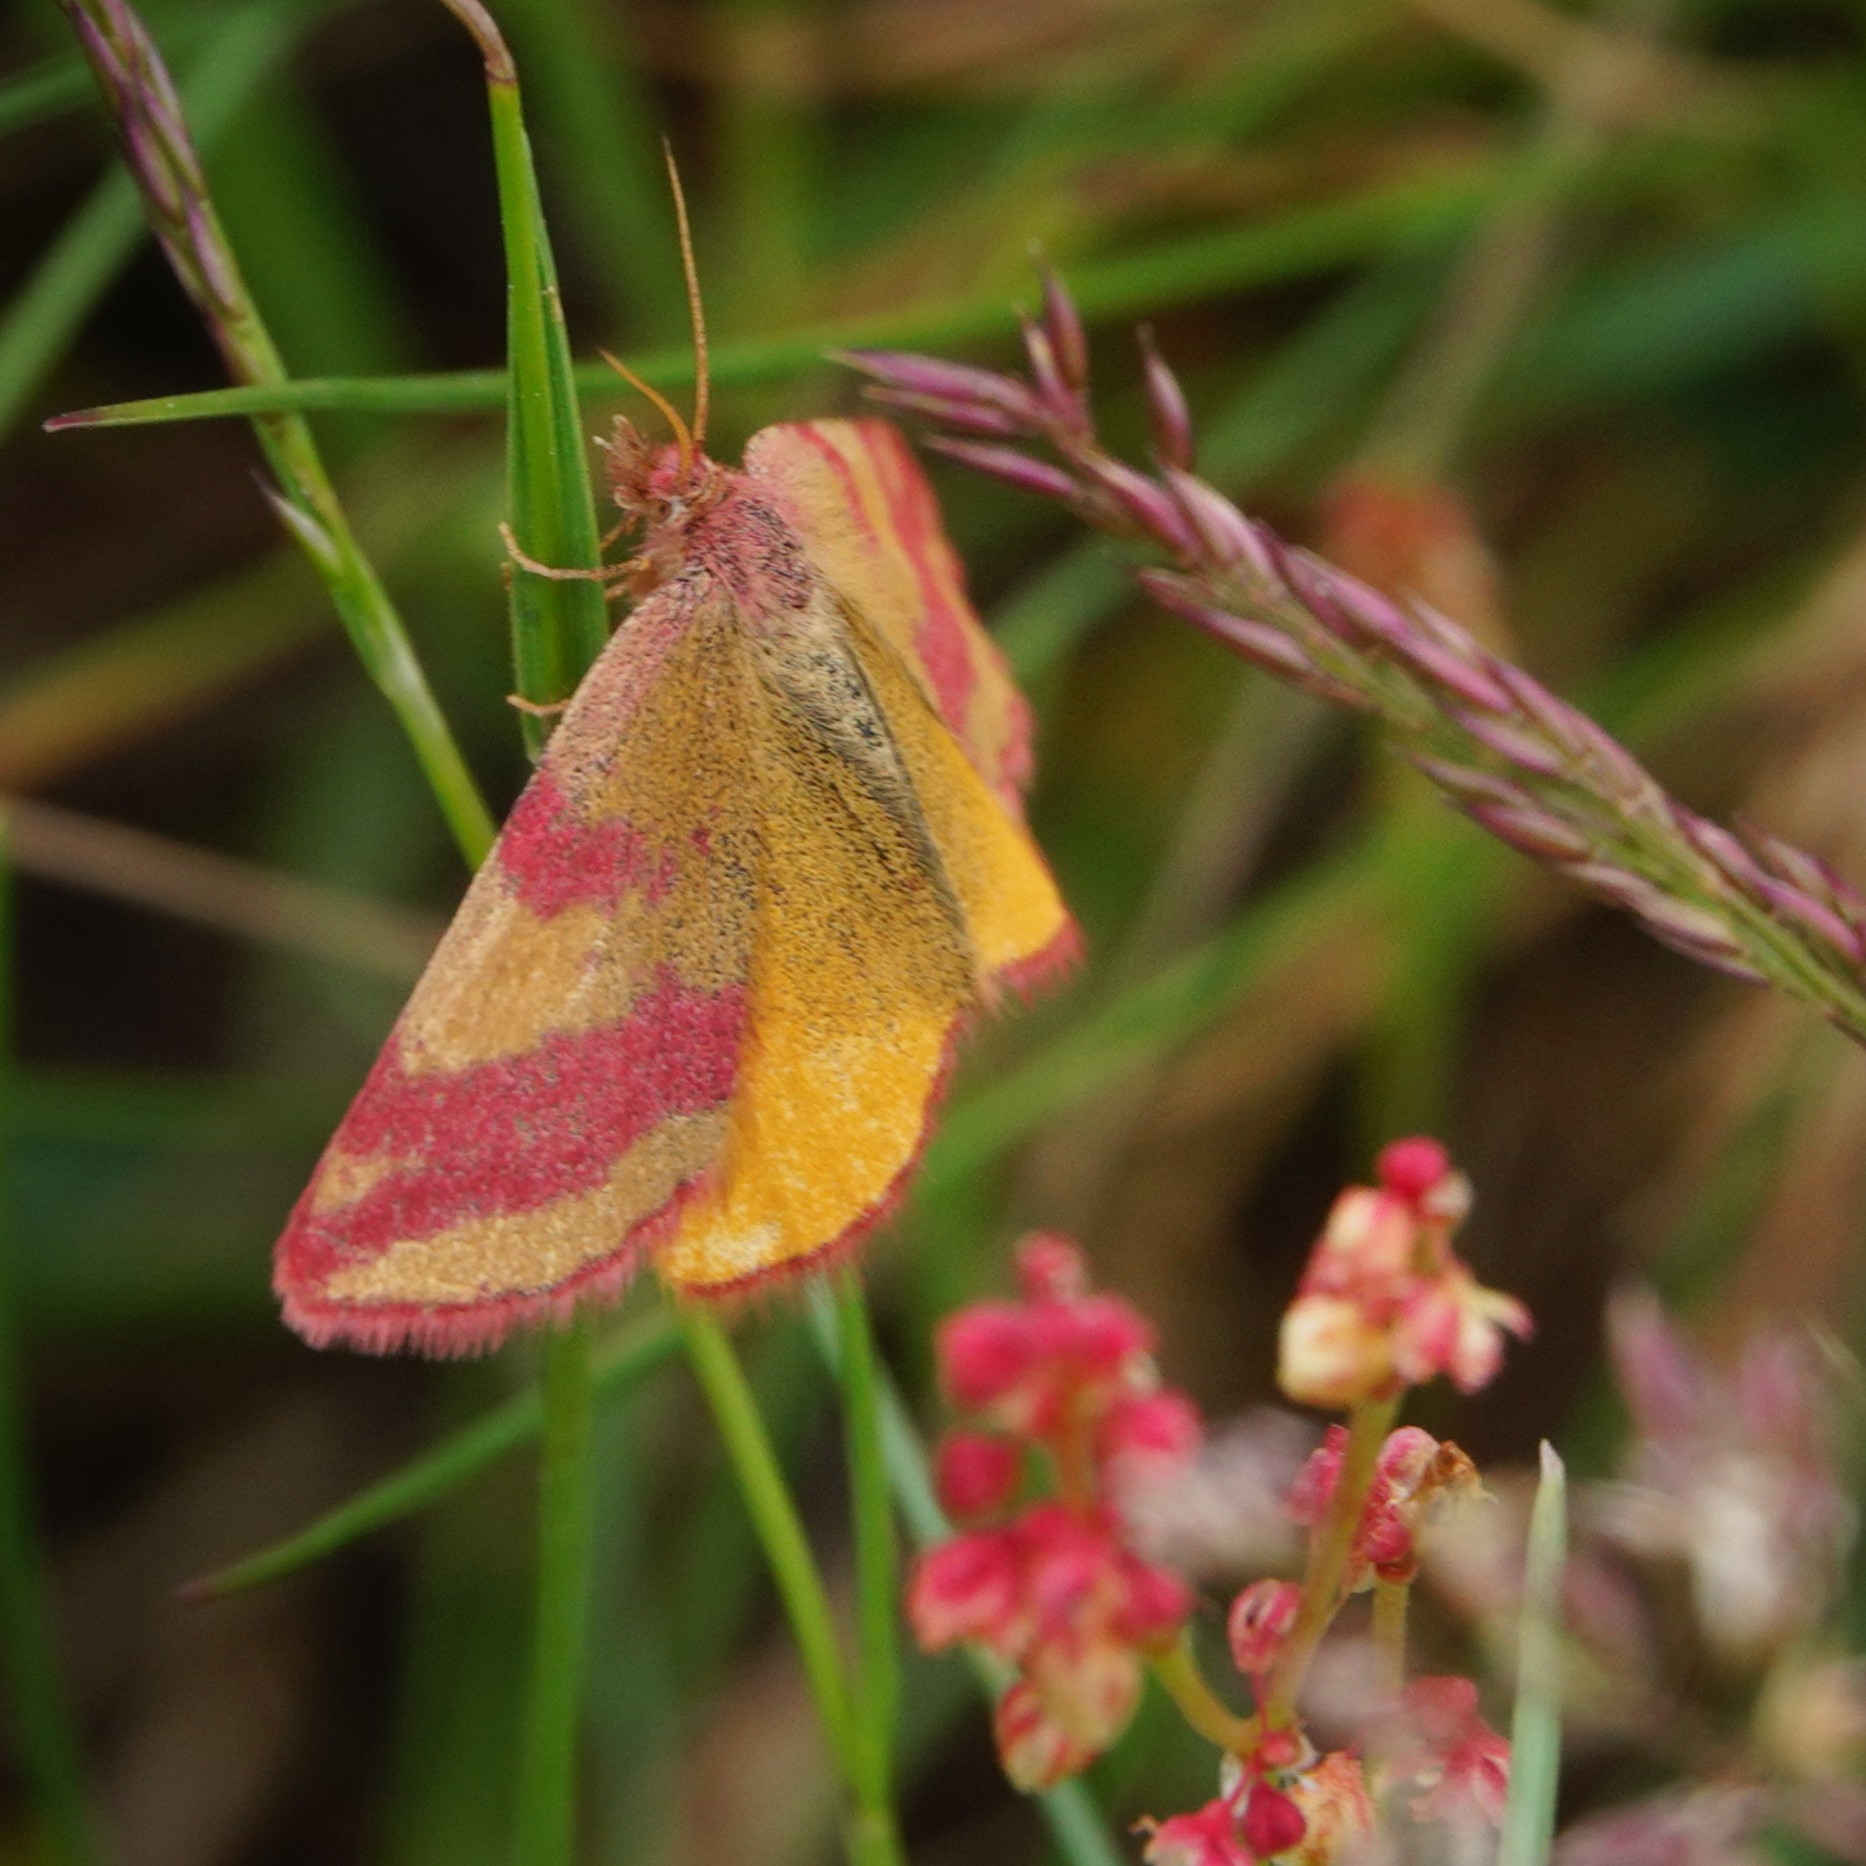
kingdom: Animalia
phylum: Arthropoda
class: Insecta
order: Lepidoptera
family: Geometridae
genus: Lythria
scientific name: Lythria cruentaria
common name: Purple-barred yellow
